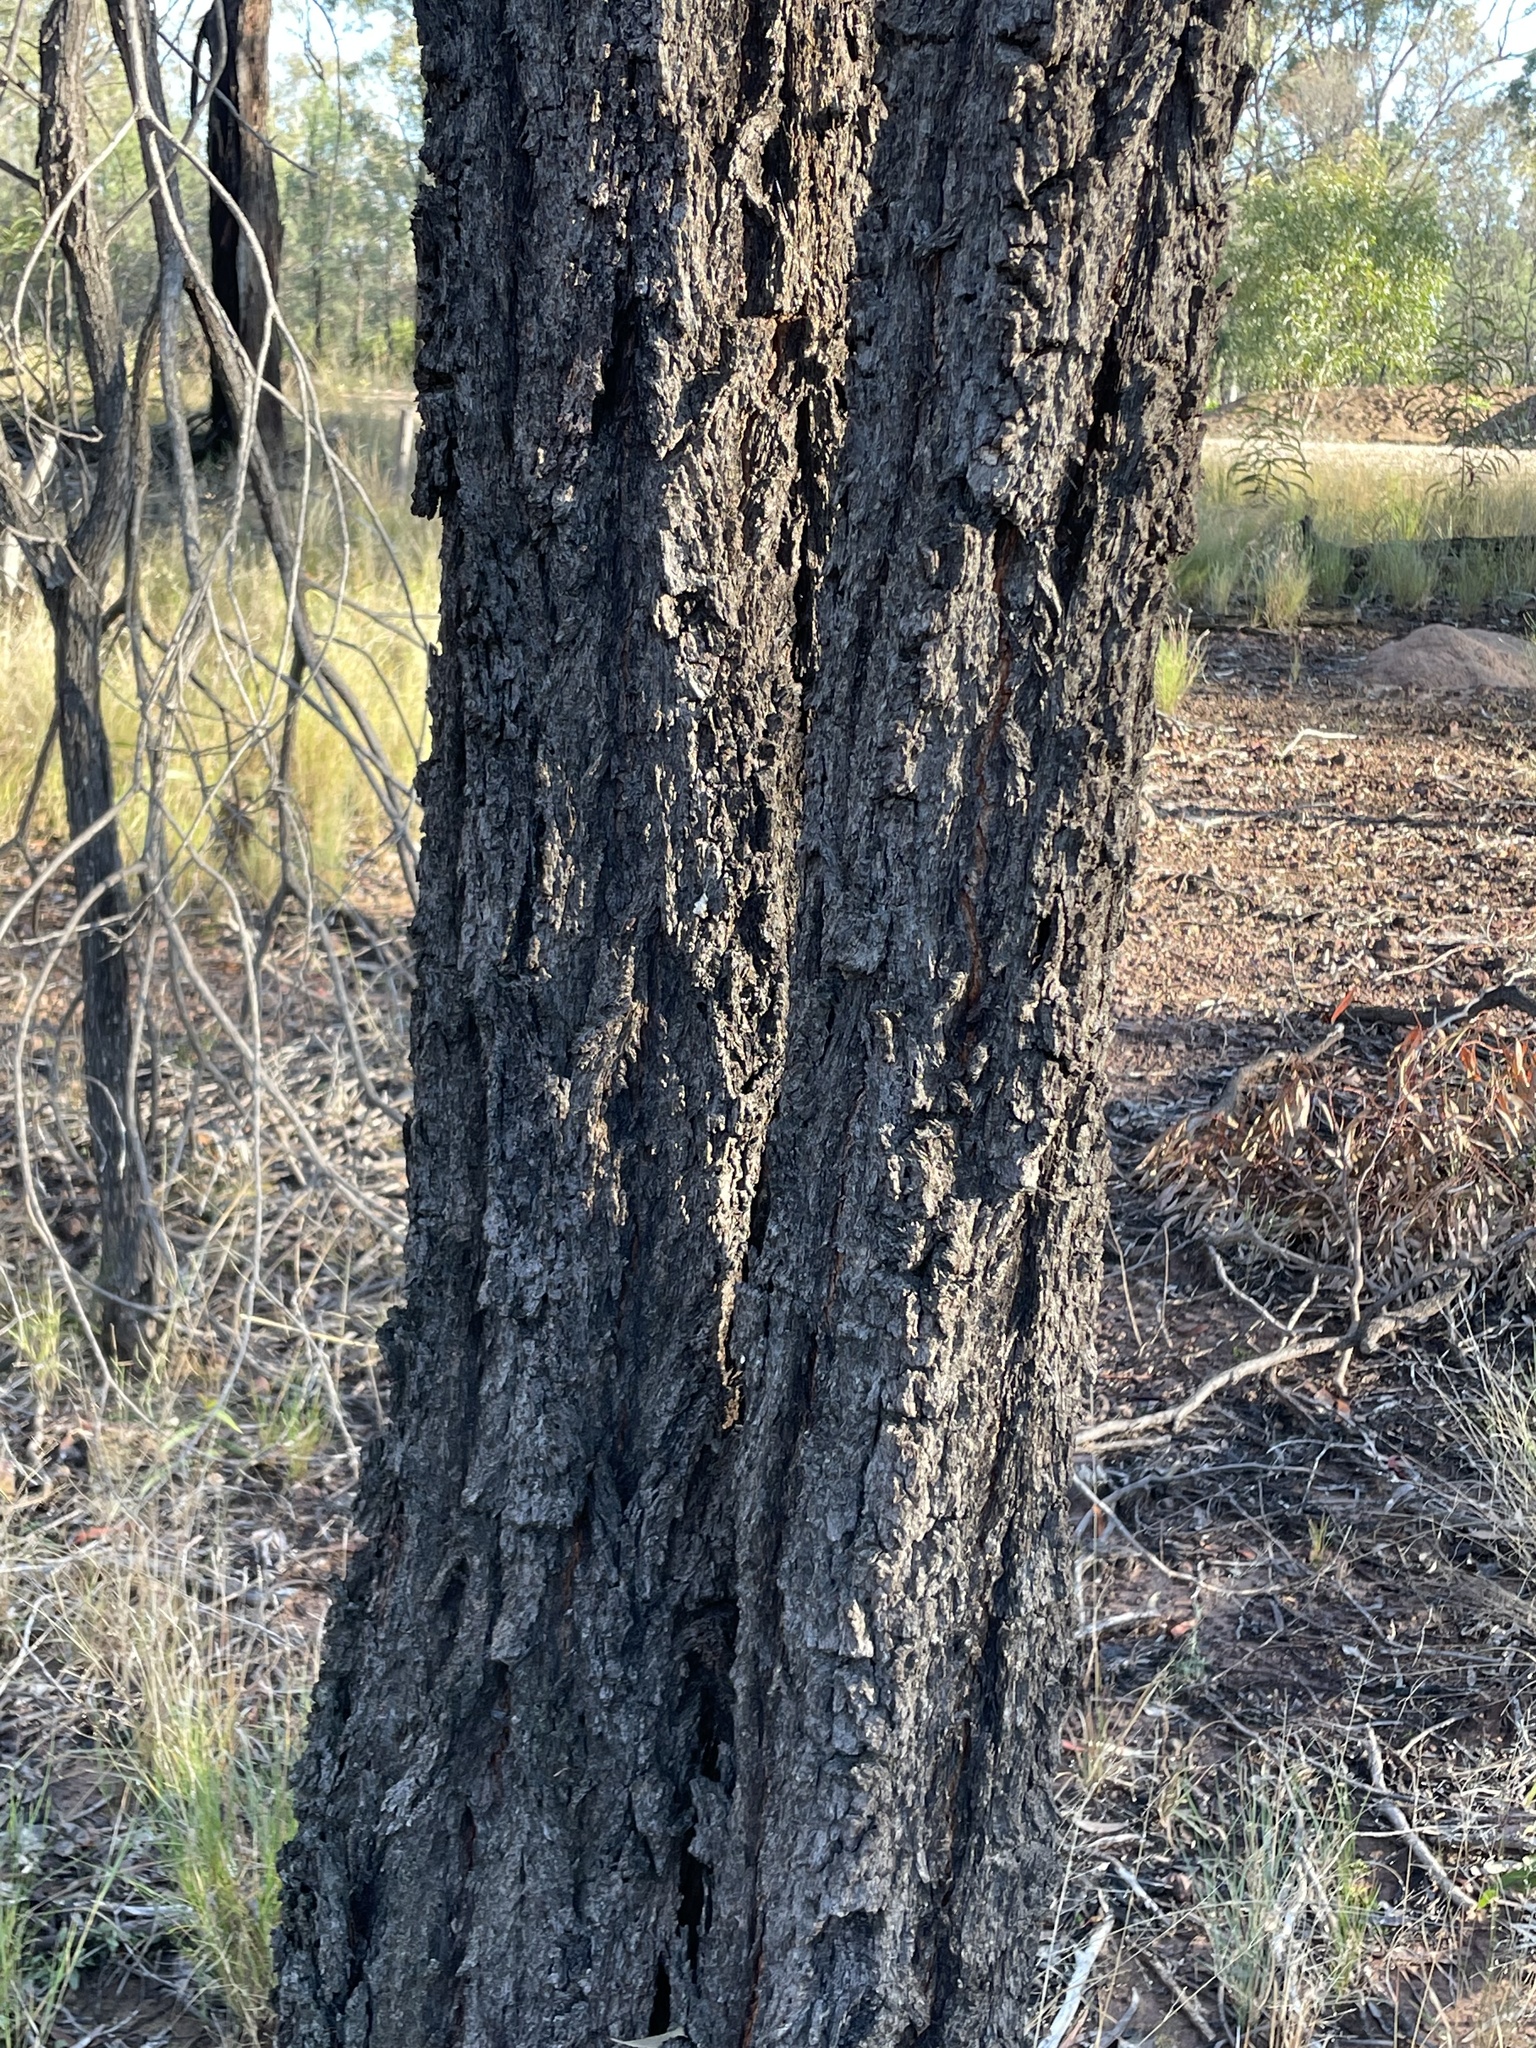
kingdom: Plantae
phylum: Tracheophyta
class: Magnoliopsida
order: Myrtales
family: Myrtaceae
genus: Eucalyptus
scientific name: Eucalyptus crebra
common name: Narrowleaf red ironbark
